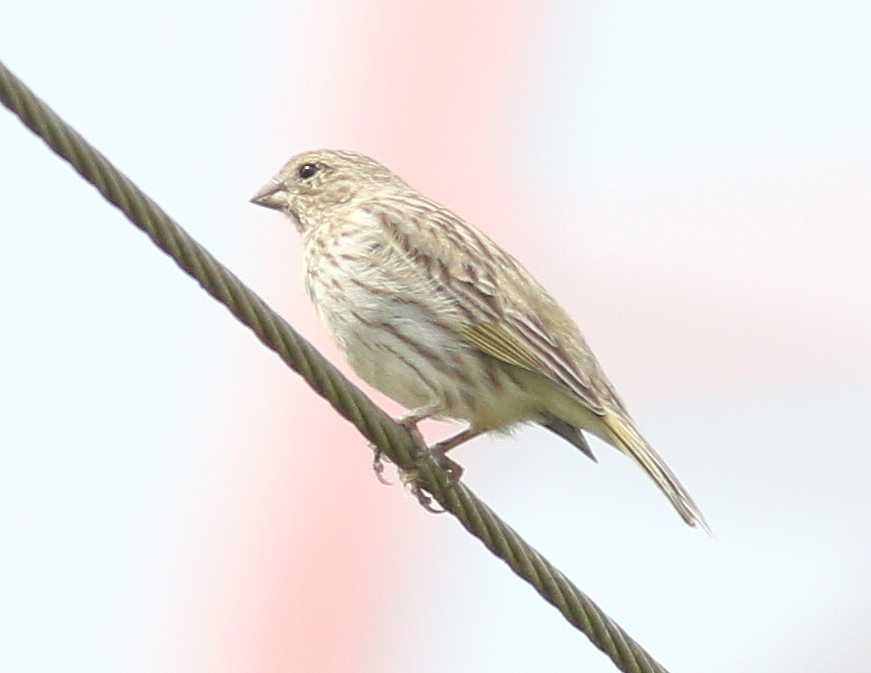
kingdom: Animalia
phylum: Chordata
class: Aves
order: Passeriformes
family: Thraupidae
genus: Sicalis
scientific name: Sicalis flaveola
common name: Saffron finch
